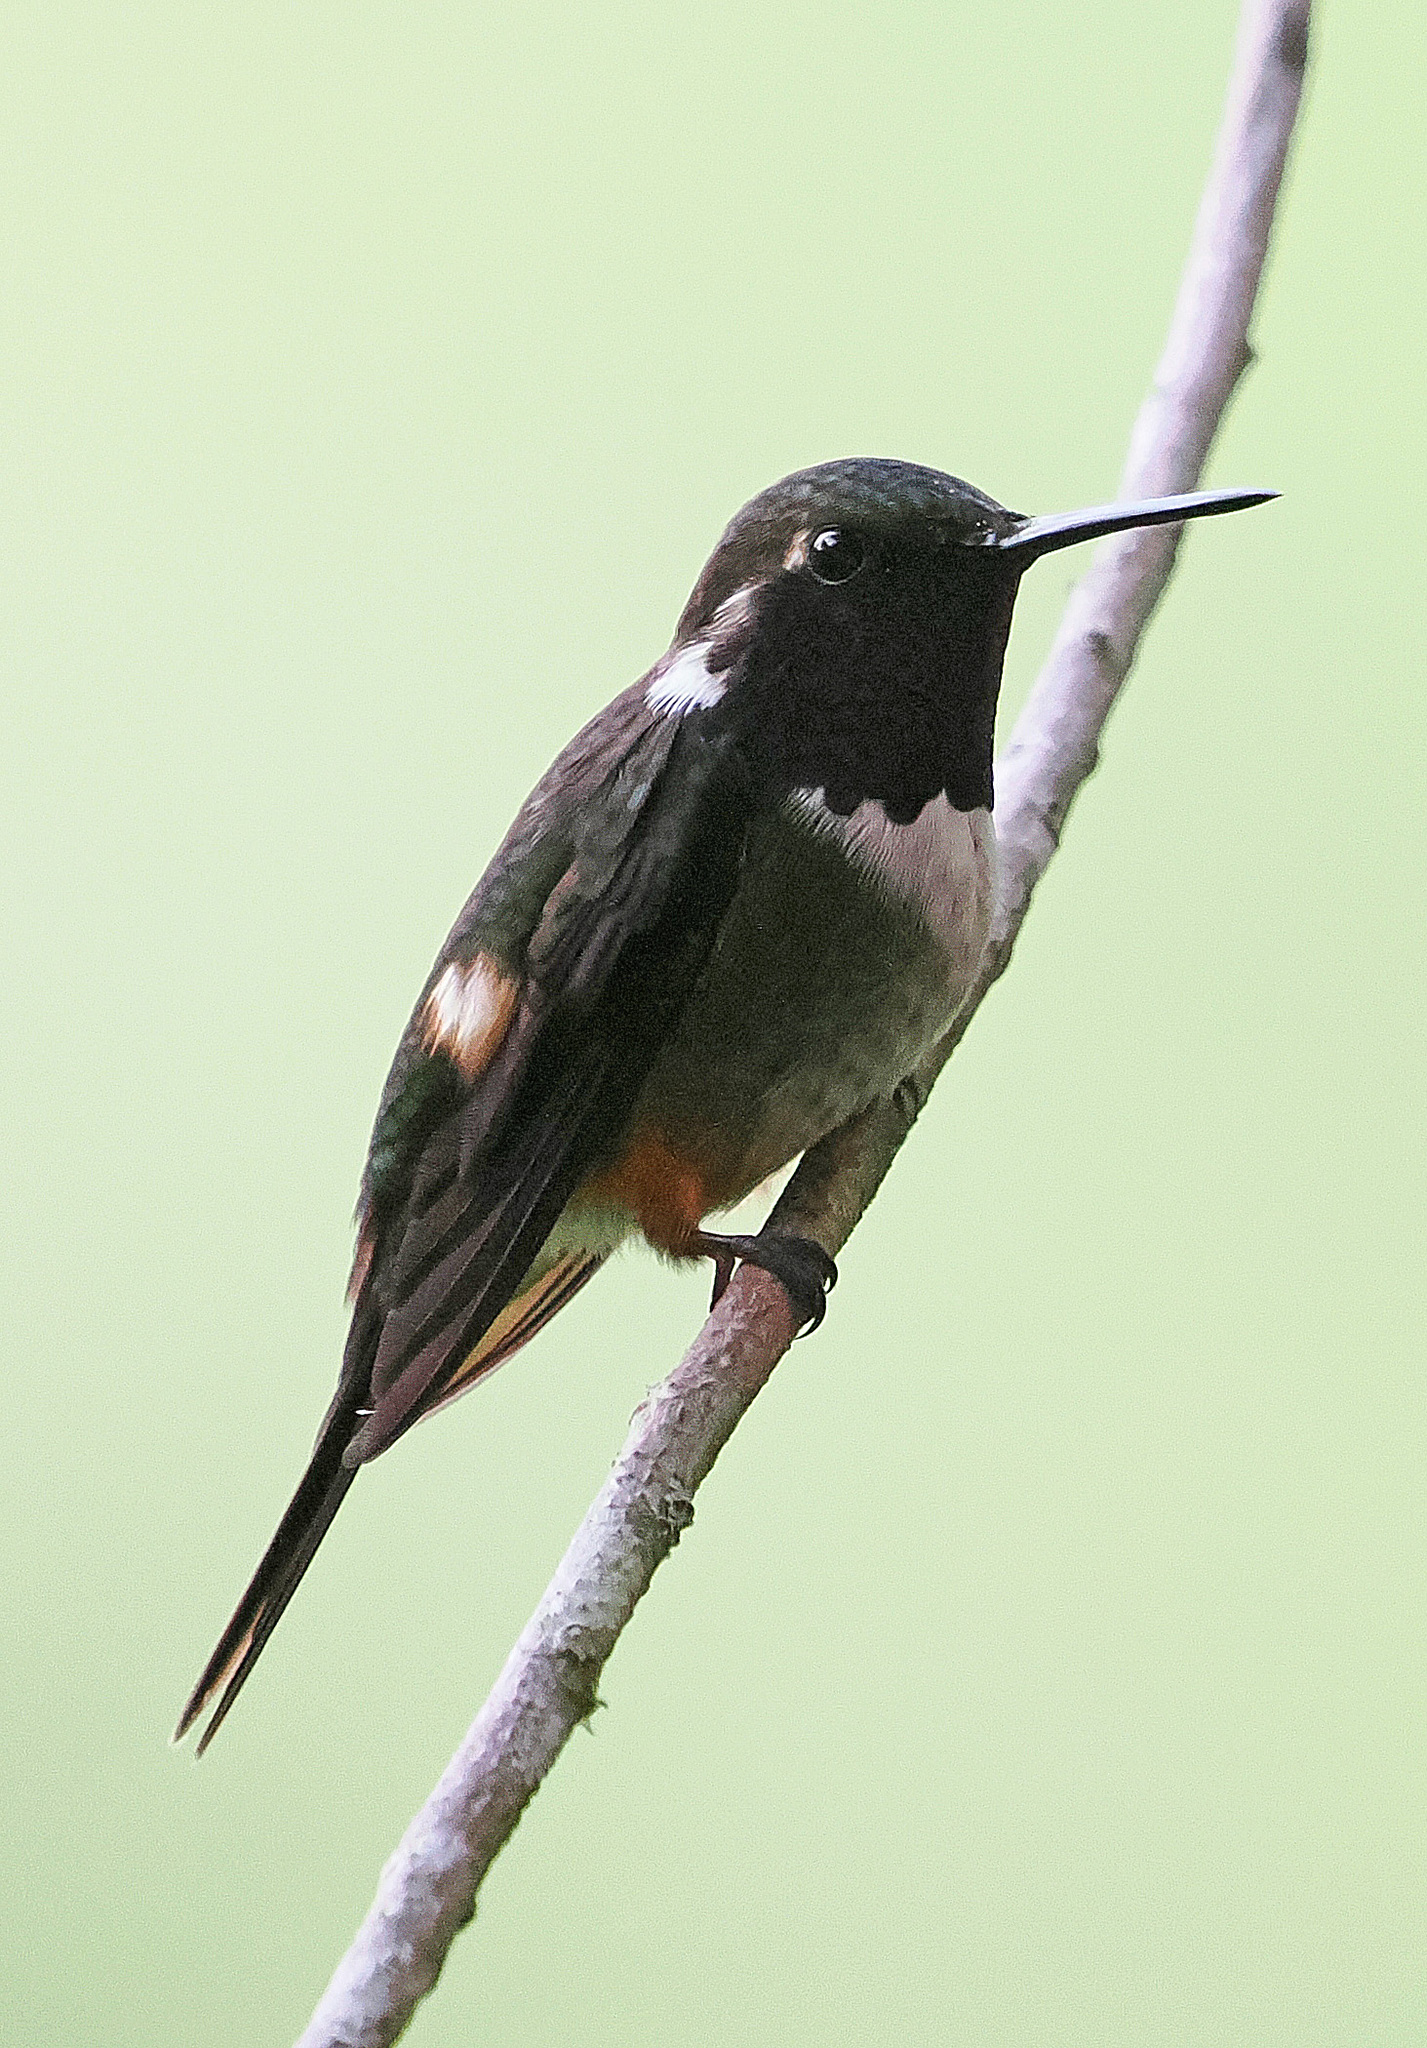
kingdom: Animalia
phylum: Chordata
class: Aves
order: Apodiformes
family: Trochilidae
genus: Calliphlox
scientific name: Calliphlox mitchellii
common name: Purple-throated woodstar
